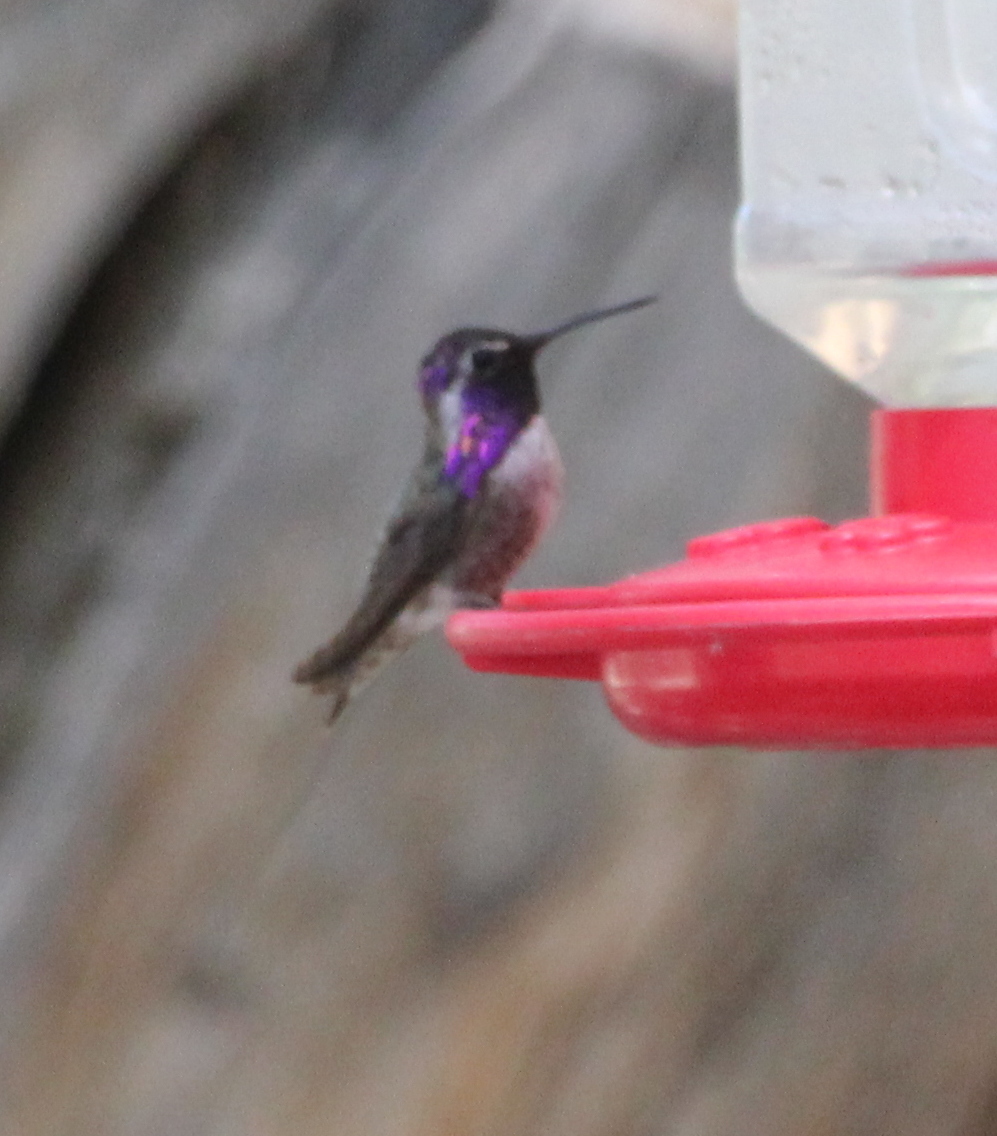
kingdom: Animalia
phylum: Chordata
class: Aves
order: Apodiformes
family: Trochilidae
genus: Calypte
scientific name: Calypte costae
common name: Costa's hummingbird
